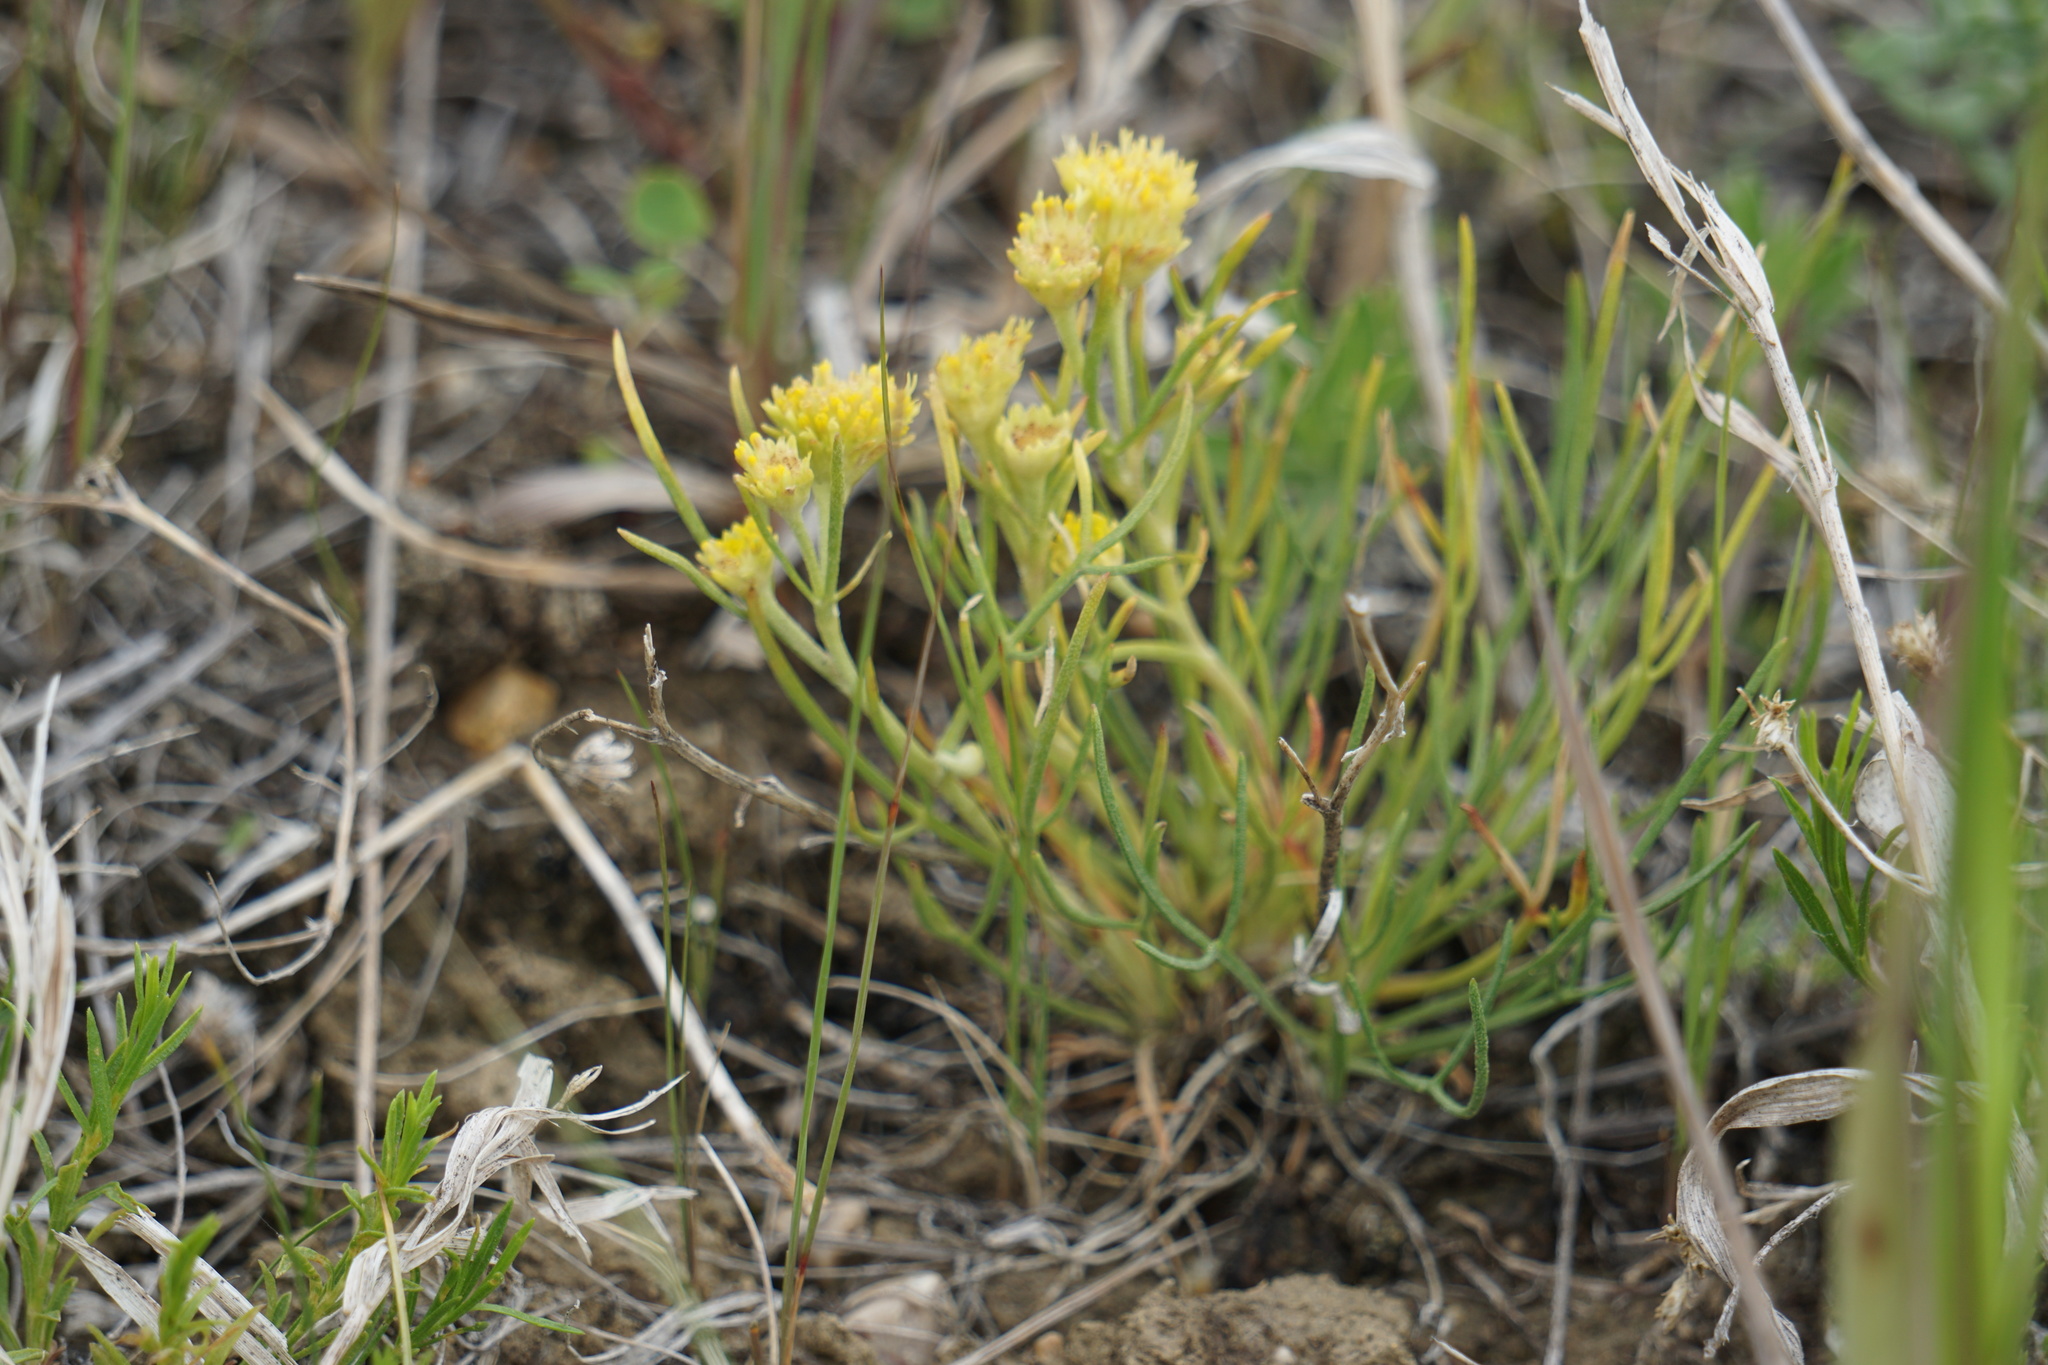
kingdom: Plantae
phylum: Tracheophyta
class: Magnoliopsida
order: Asterales
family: Asteraceae
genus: Hymenoxys
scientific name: Hymenoxys richardsonii
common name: Pingue rubberweed
